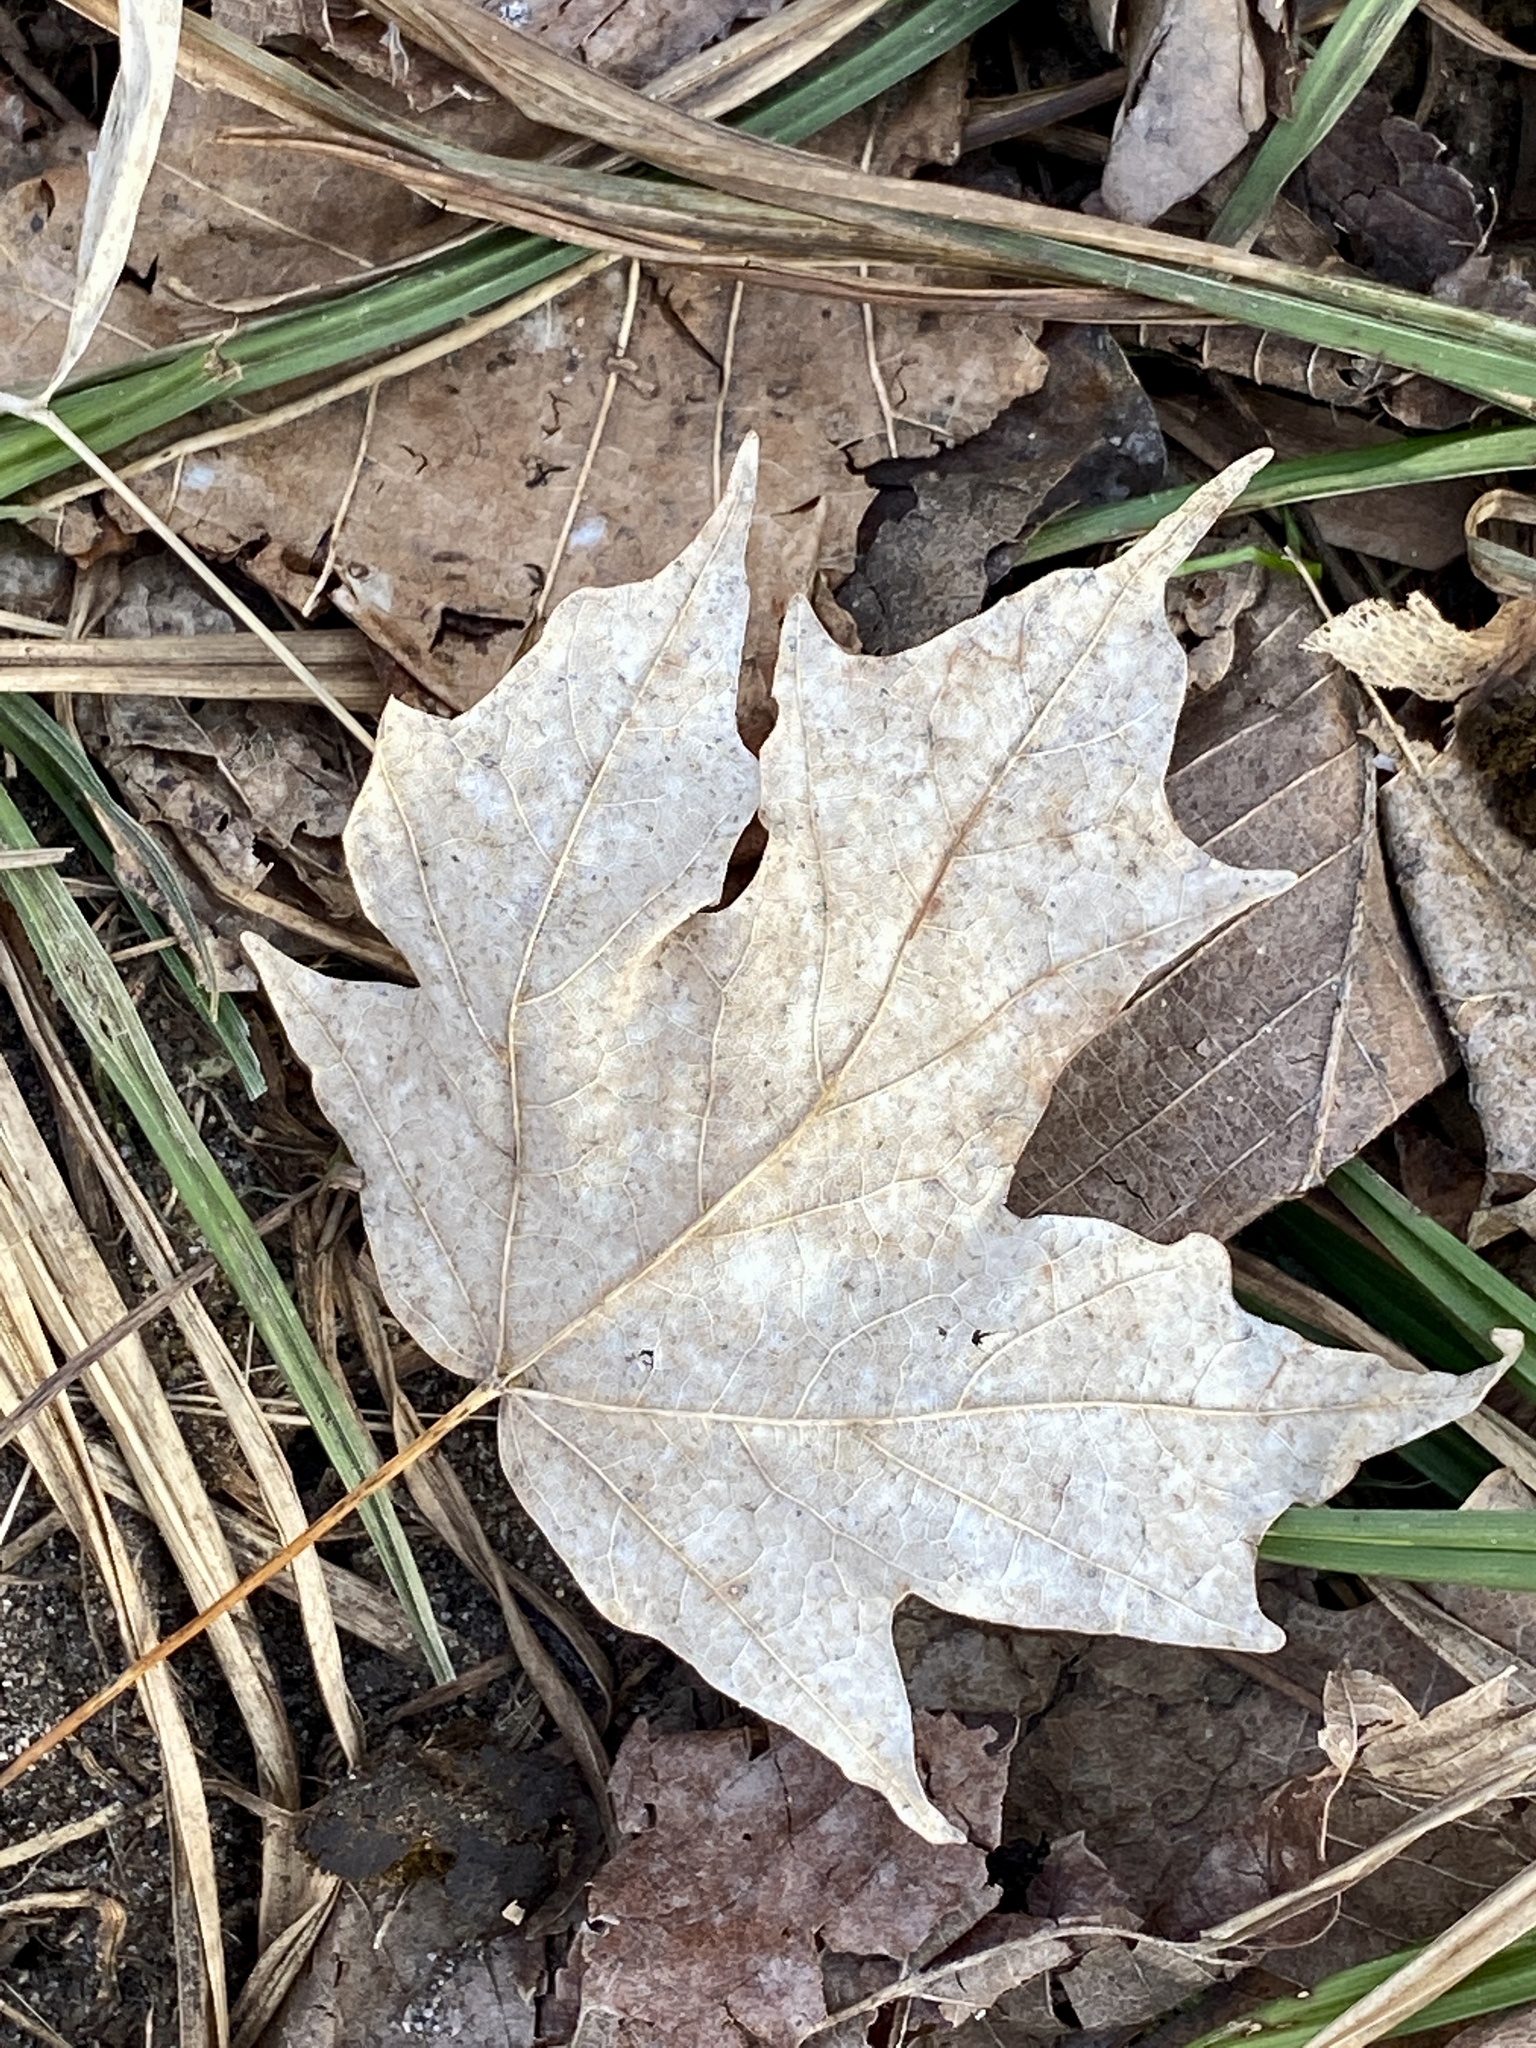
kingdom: Plantae
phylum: Tracheophyta
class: Magnoliopsida
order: Sapindales
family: Sapindaceae
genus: Acer
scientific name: Acer saccharum
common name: Sugar maple
